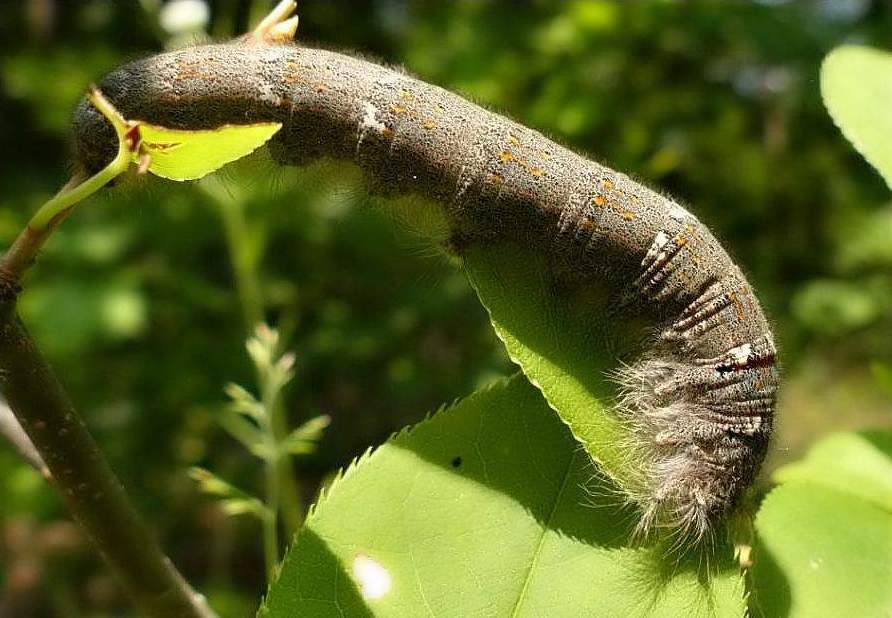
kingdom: Animalia
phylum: Arthropoda
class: Insecta
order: Lepidoptera
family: Lasiocampidae
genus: Phyllodesma
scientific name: Phyllodesma americana
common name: American lappet moth
